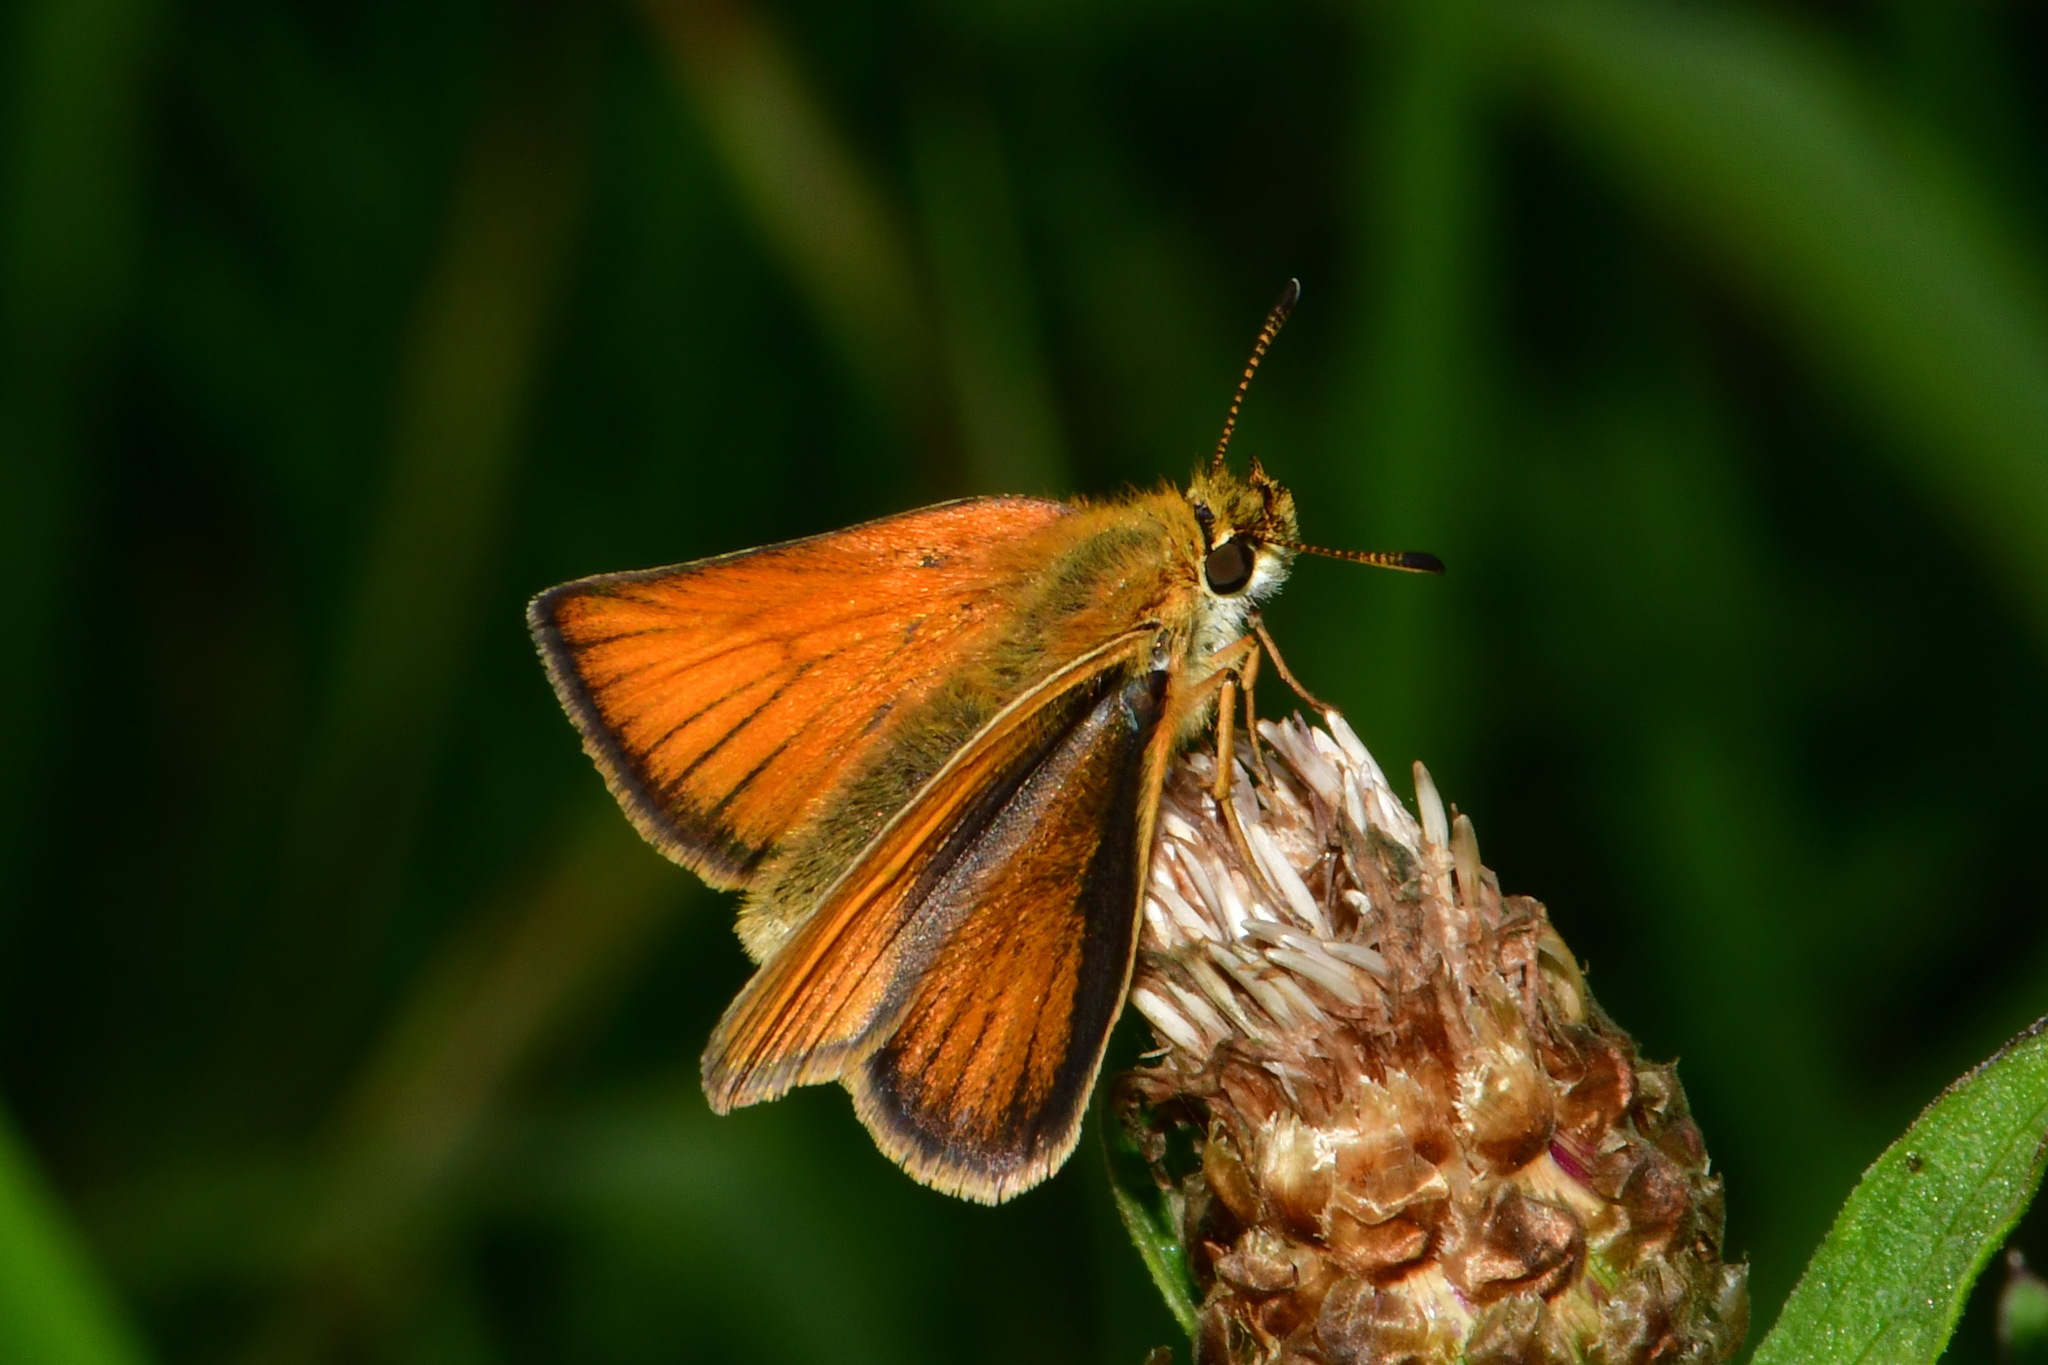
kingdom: Animalia
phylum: Arthropoda
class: Insecta
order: Lepidoptera
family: Hesperiidae
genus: Thymelicus
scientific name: Thymelicus lineola
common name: Essex skipper
